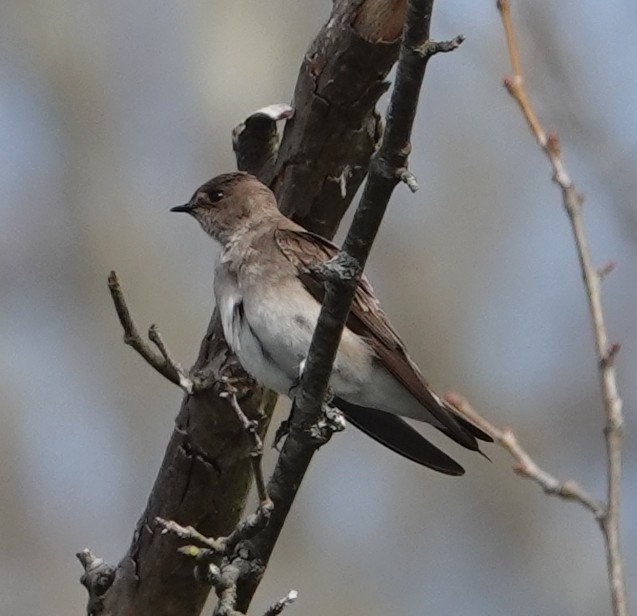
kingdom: Animalia
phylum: Chordata
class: Aves
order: Passeriformes
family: Hirundinidae
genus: Stelgidopteryx
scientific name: Stelgidopteryx serripennis
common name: Northern rough-winged swallow
